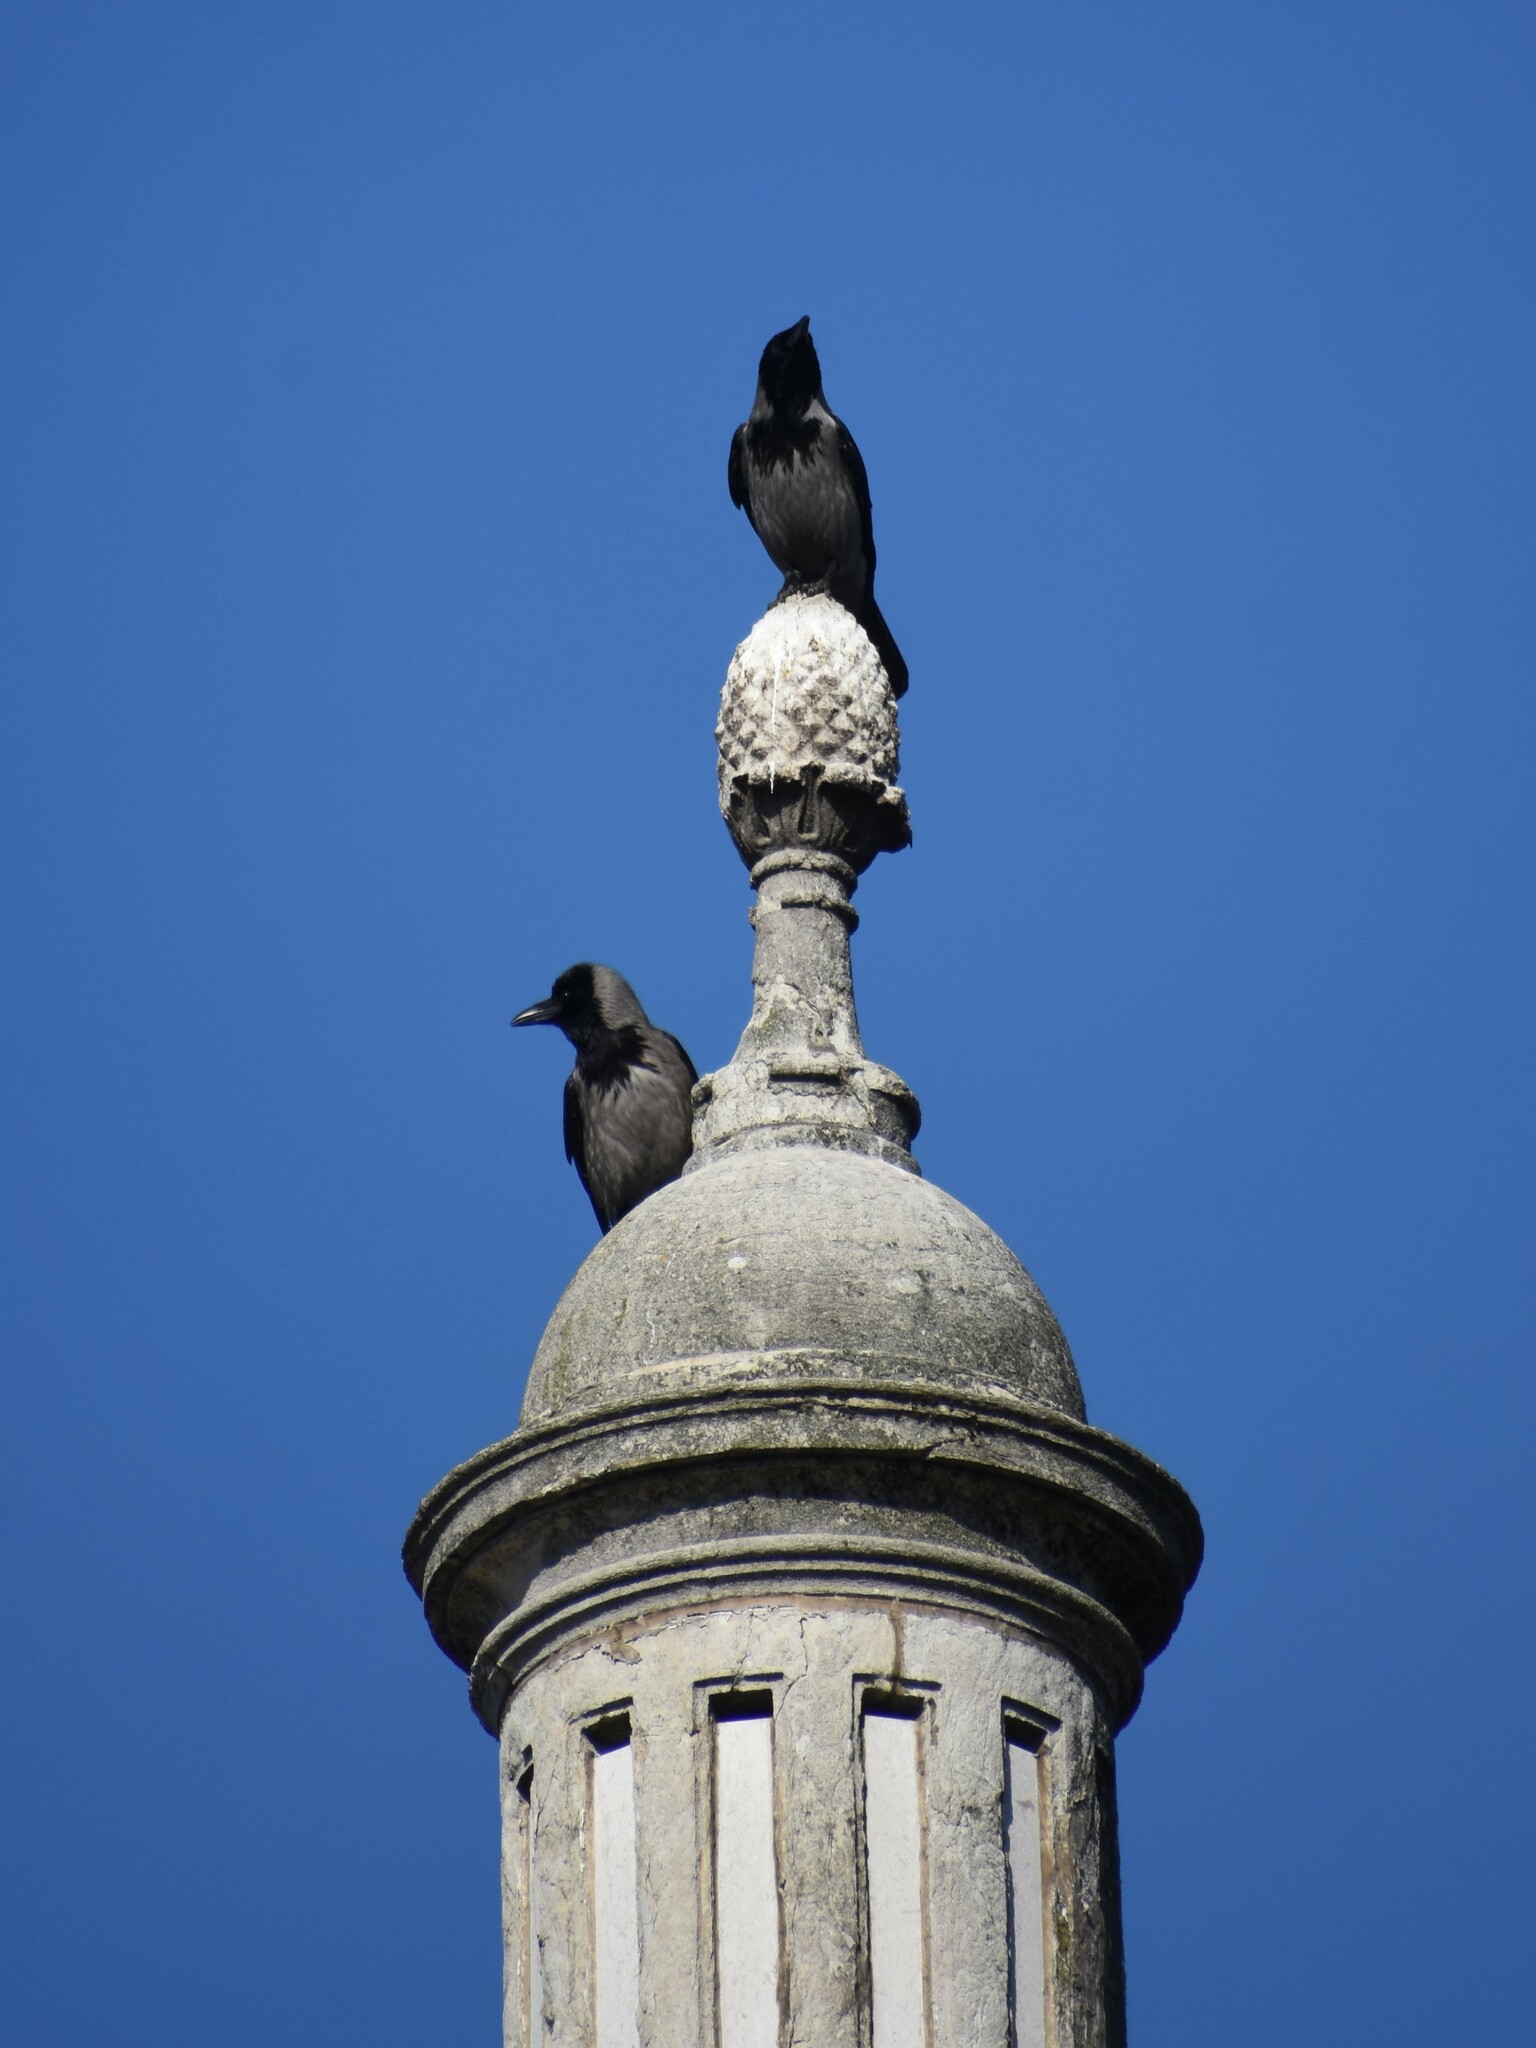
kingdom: Animalia
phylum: Chordata
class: Aves
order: Passeriformes
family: Corvidae
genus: Corvus
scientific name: Corvus cornix
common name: Hooded crow
